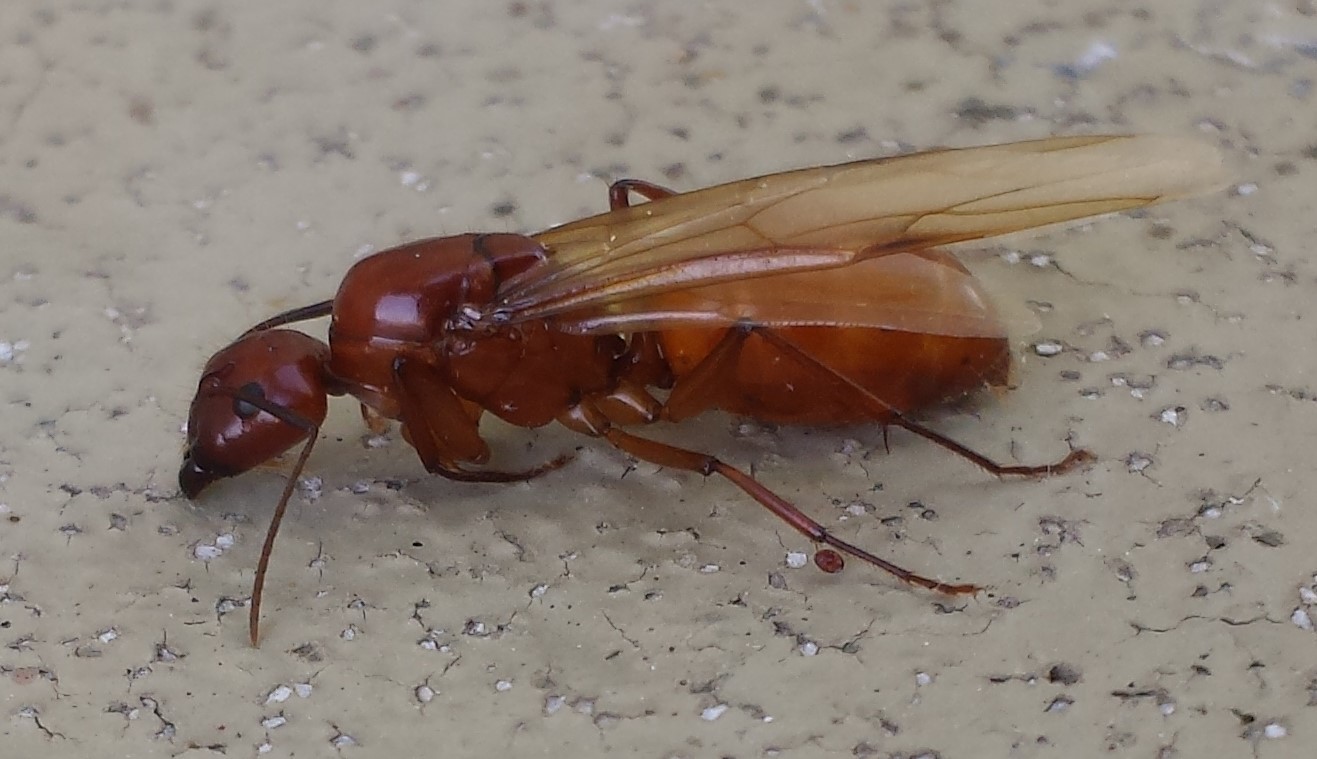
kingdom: Animalia
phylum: Arthropoda
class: Insecta
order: Hymenoptera
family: Formicidae
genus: Camponotus
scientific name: Camponotus castaneus
